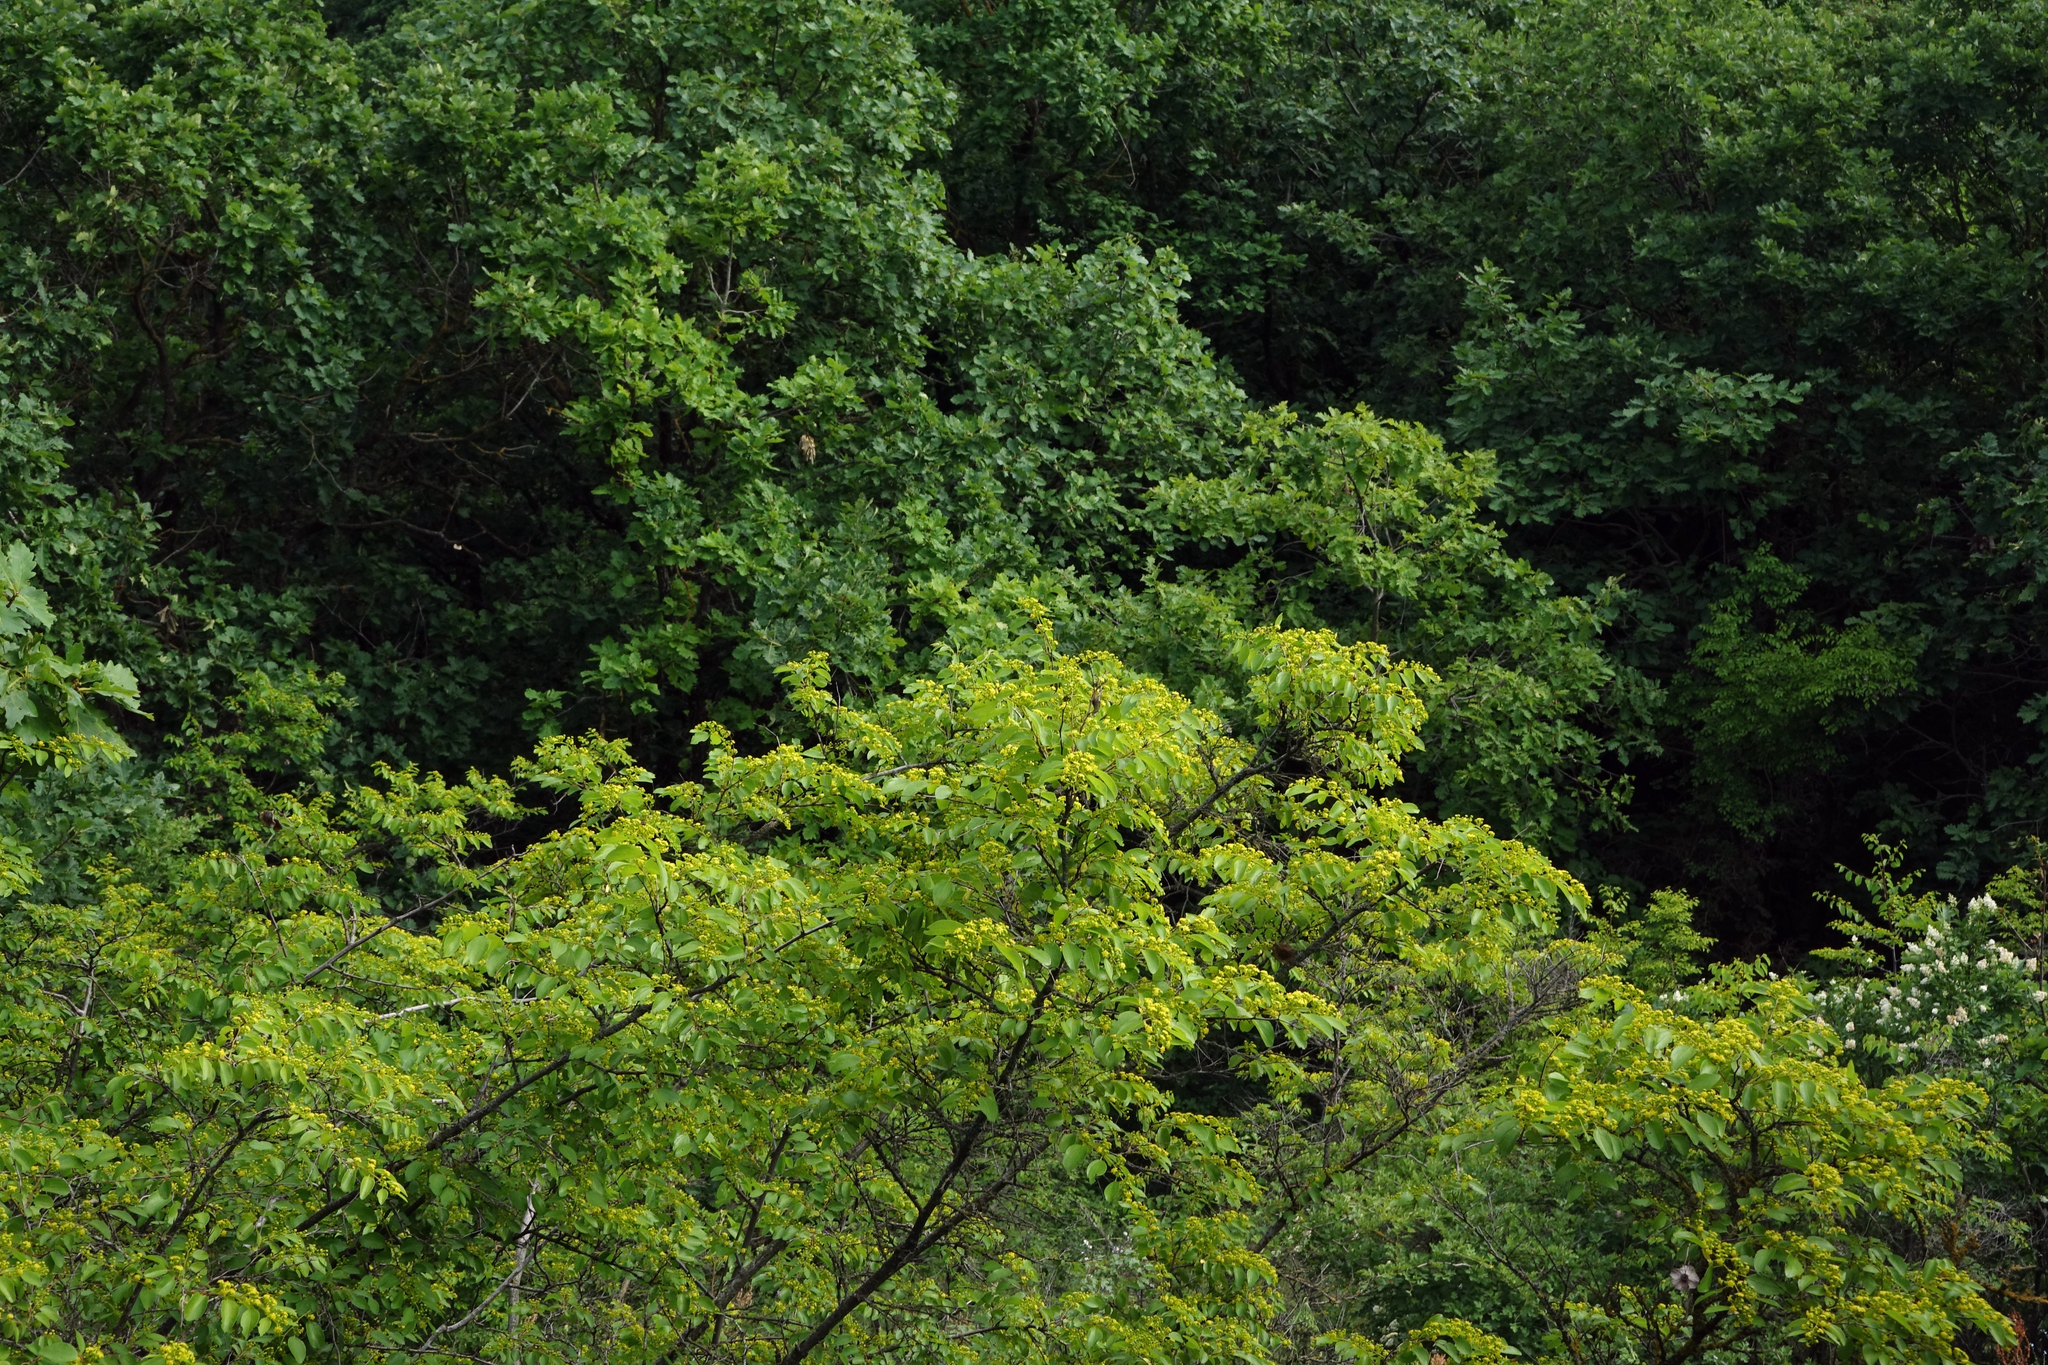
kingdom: Plantae
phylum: Tracheophyta
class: Magnoliopsida
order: Rosales
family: Rhamnaceae
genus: Paliurus
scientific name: Paliurus spina-christi
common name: Jeruselem thorn
